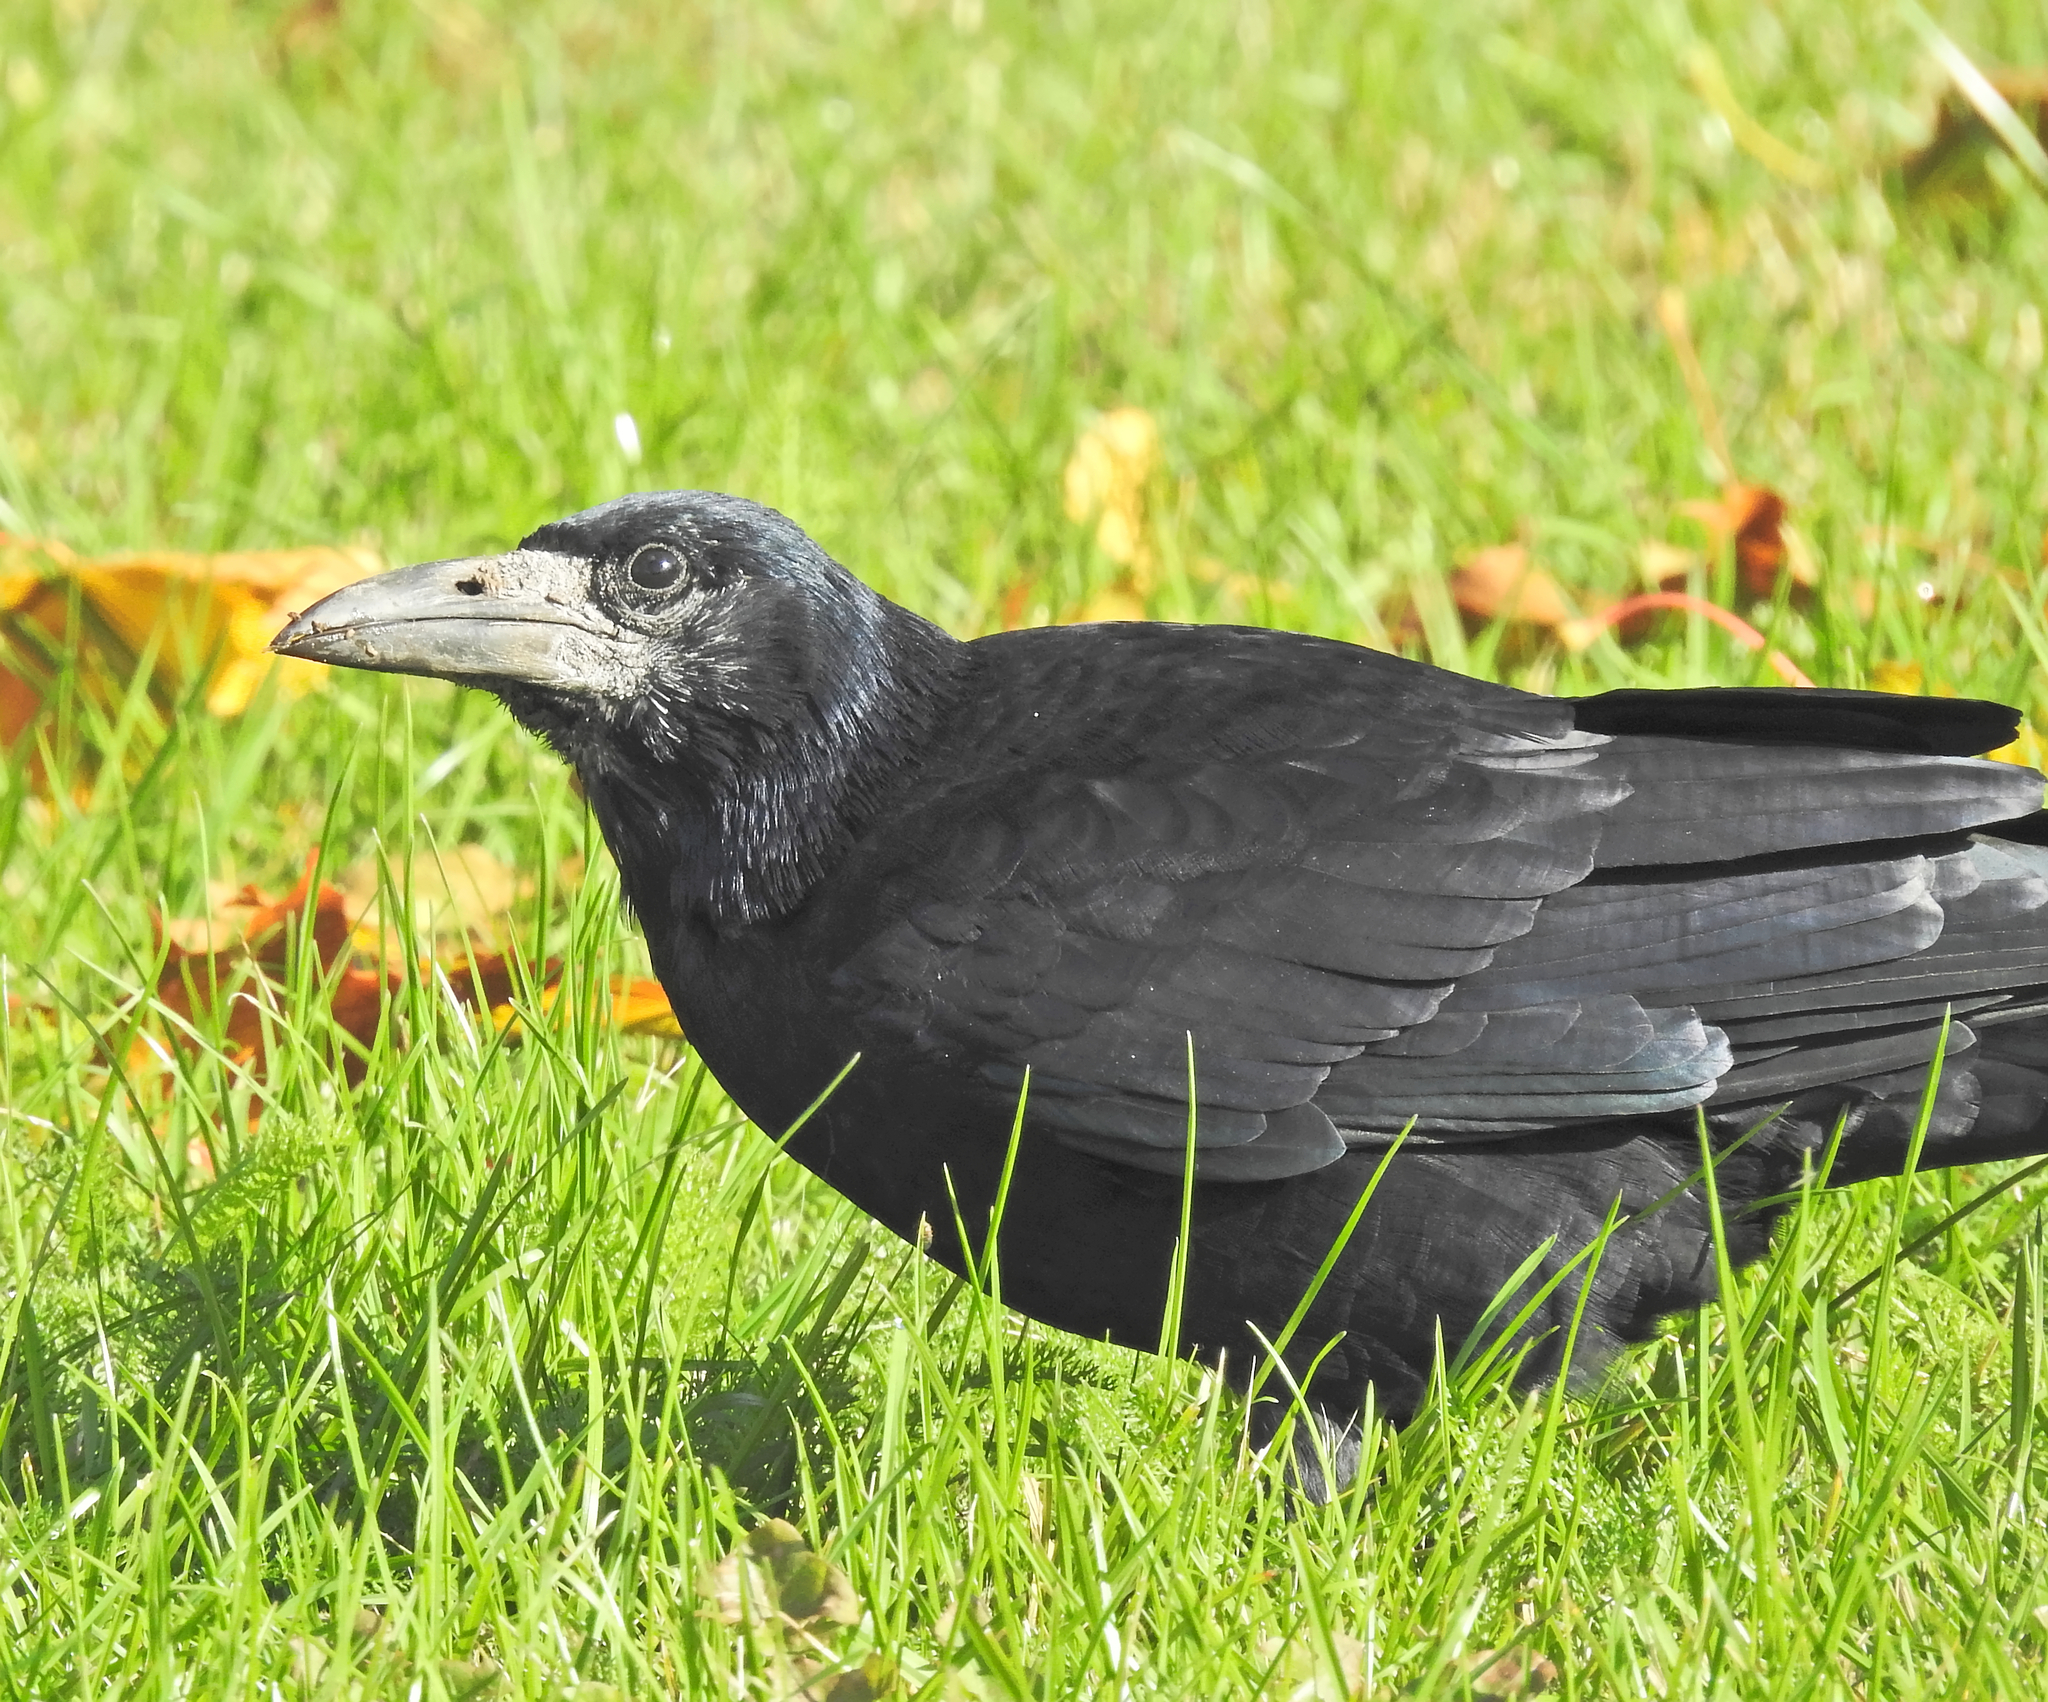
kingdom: Animalia
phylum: Chordata
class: Aves
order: Passeriformes
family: Corvidae
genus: Corvus
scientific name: Corvus frugilegus
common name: Rook
